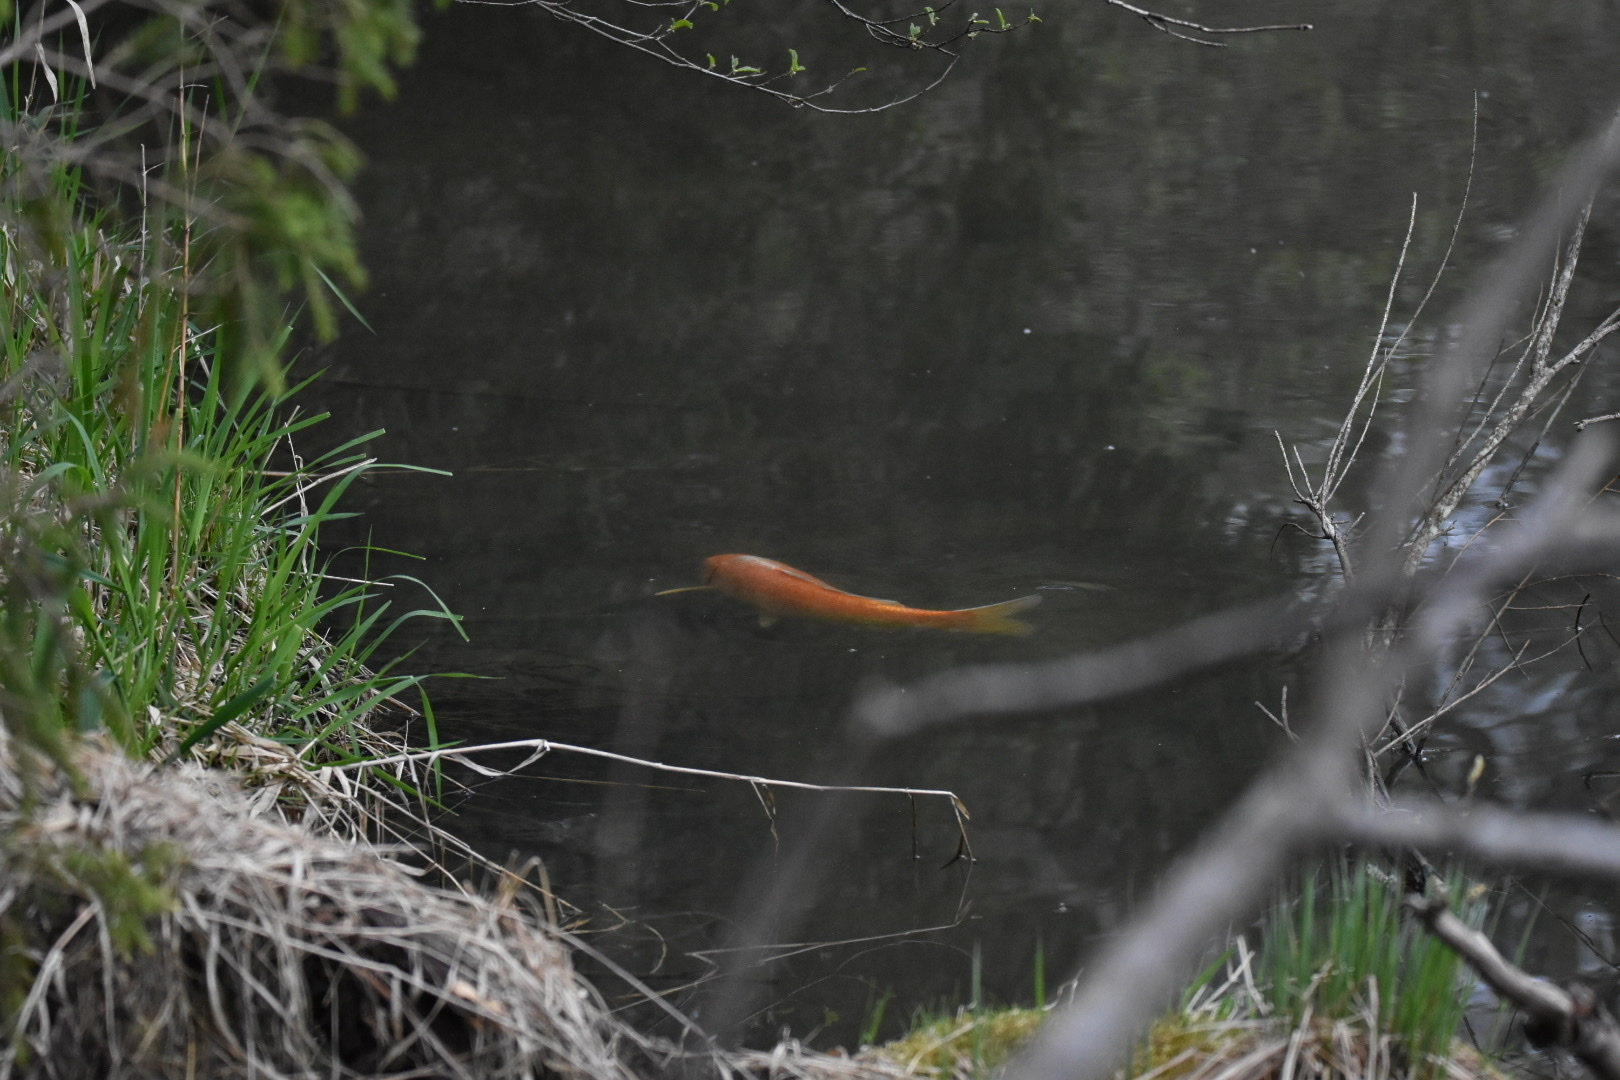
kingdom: Animalia
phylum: Chordata
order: Cypriniformes
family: Cyprinidae
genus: Cyprinus
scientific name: Cyprinus rubrofuscus
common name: Koi
